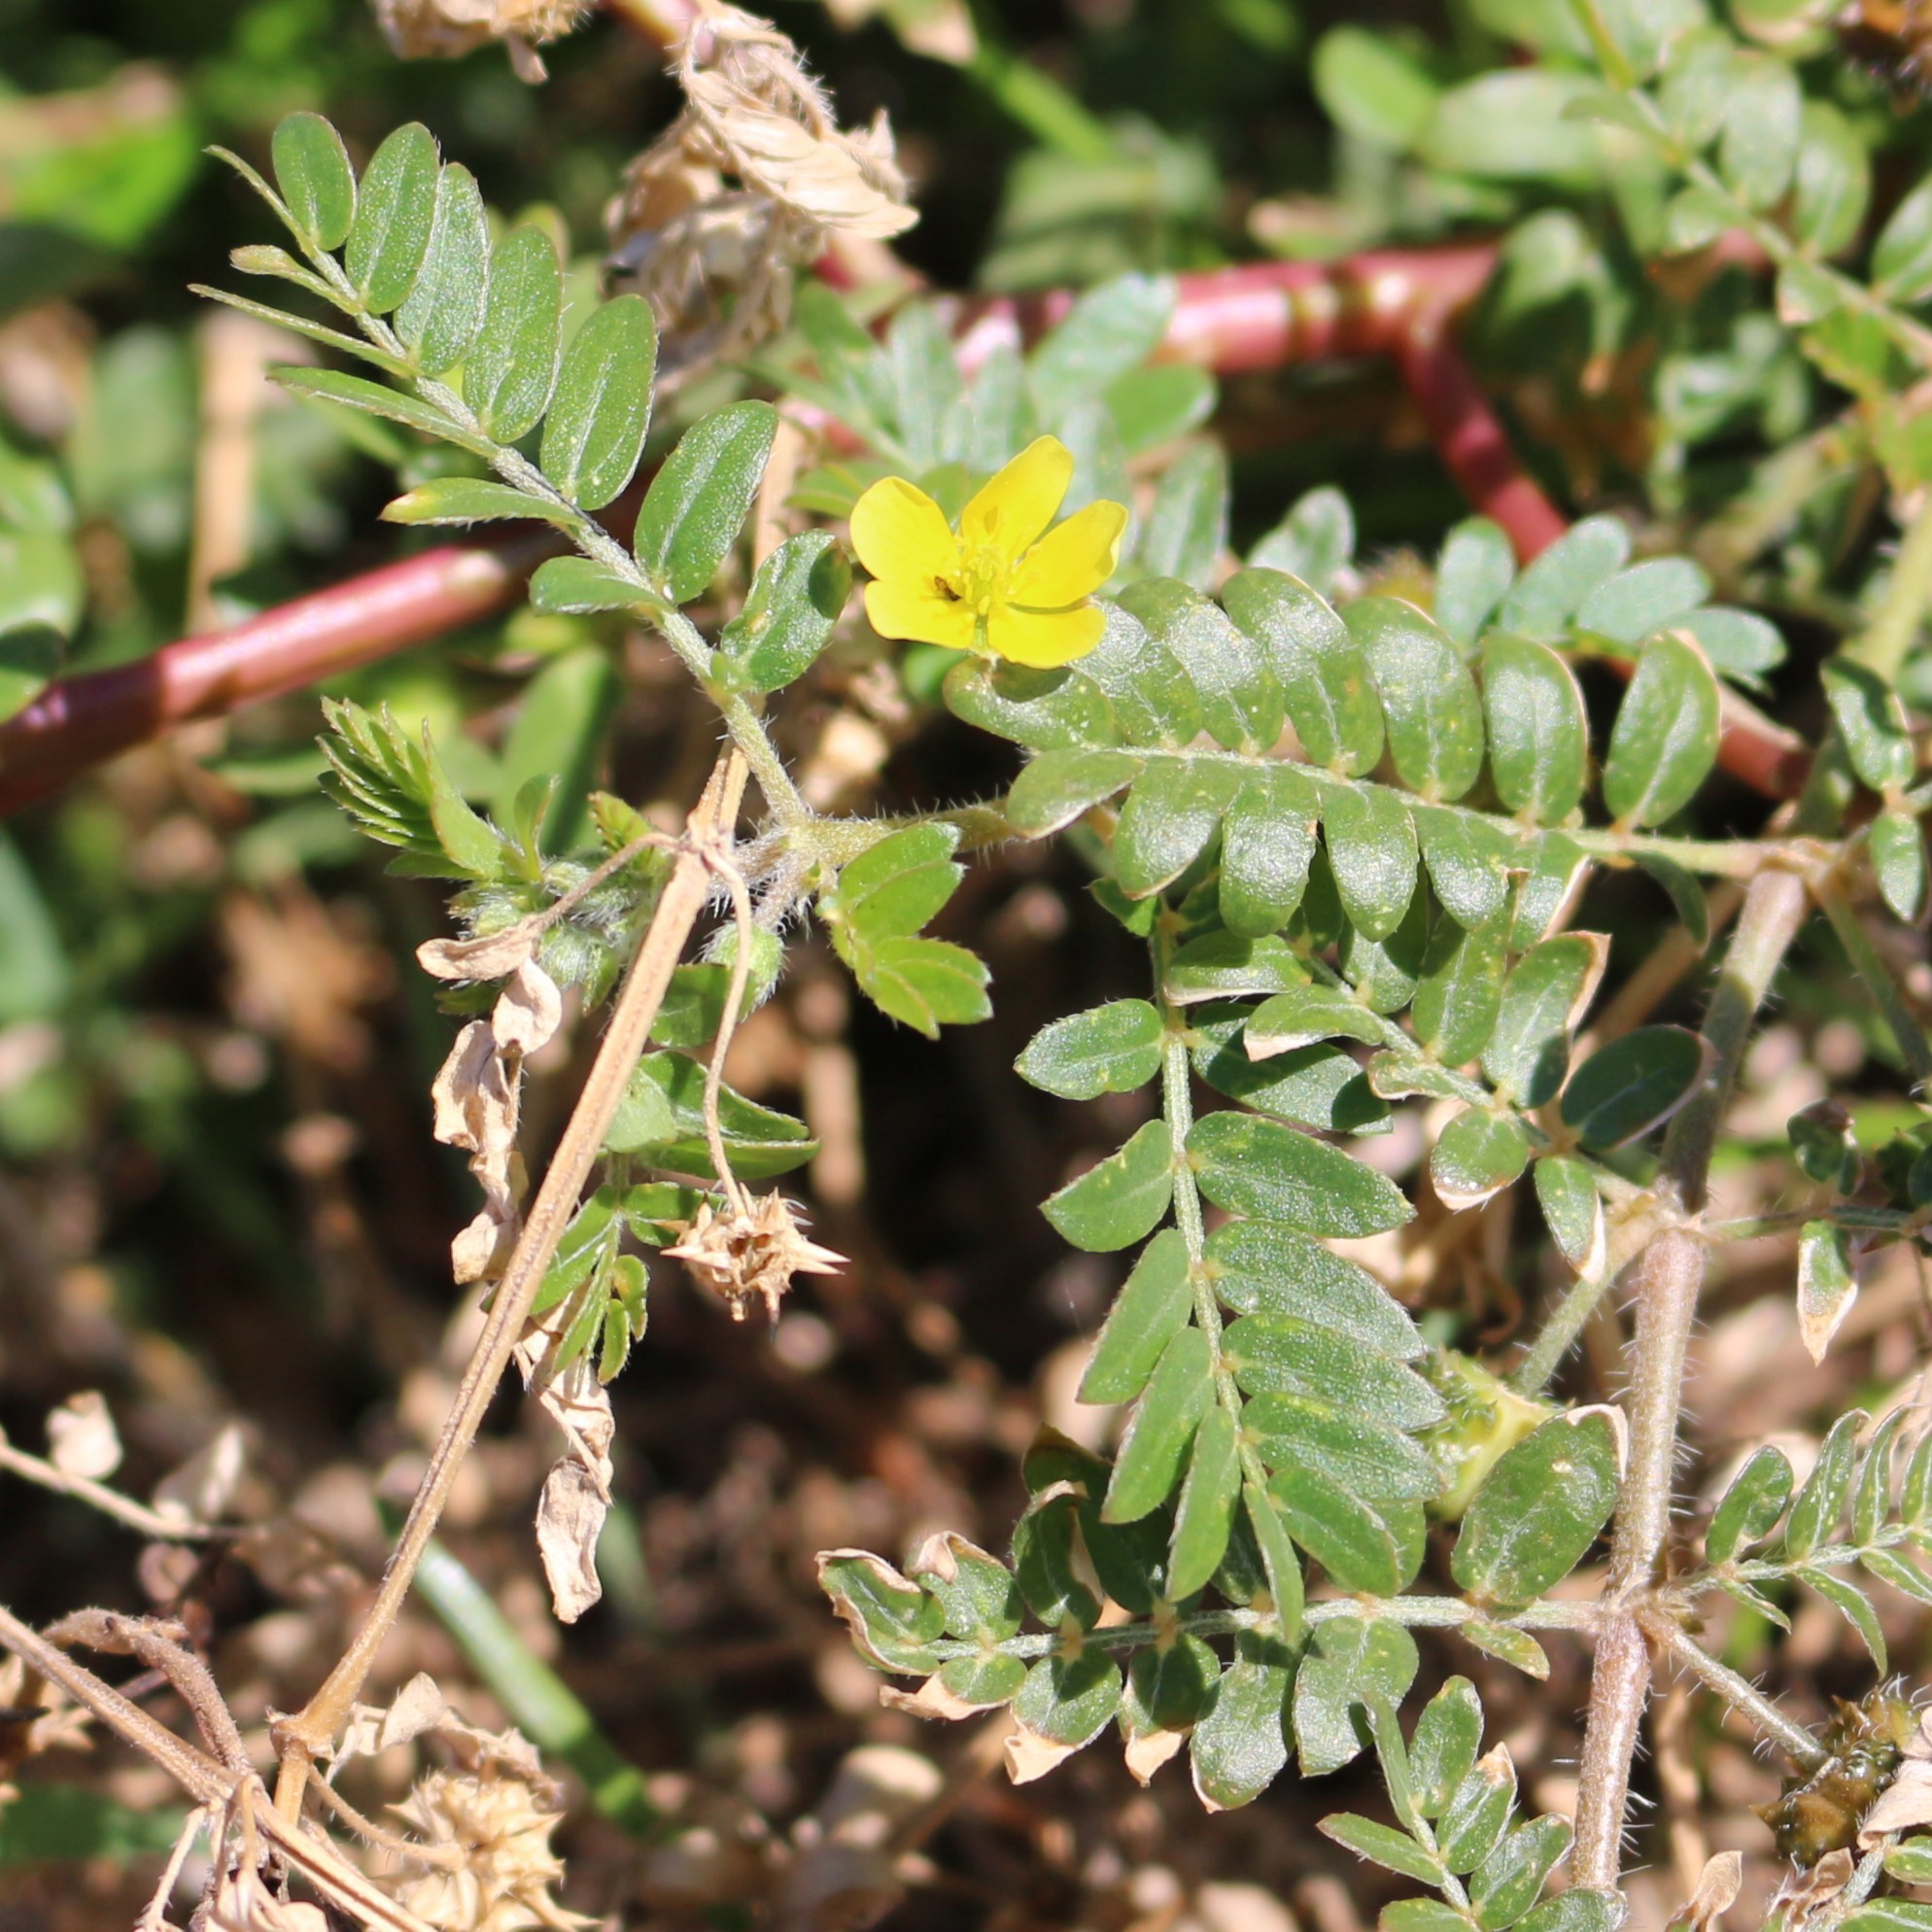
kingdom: Plantae
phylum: Tracheophyta
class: Magnoliopsida
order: Zygophyllales
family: Zygophyllaceae
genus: Tribulus
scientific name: Tribulus terrestris
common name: Puncturevine
